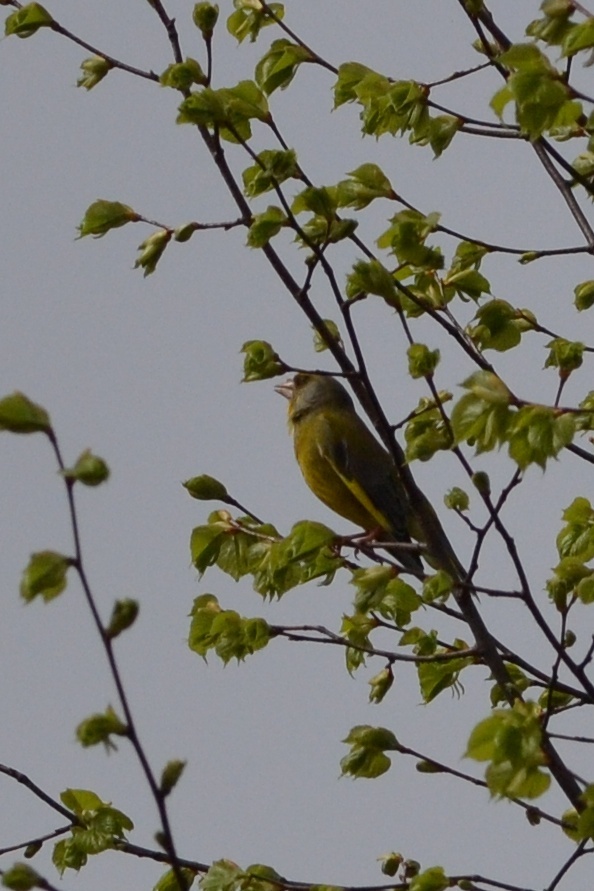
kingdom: Plantae
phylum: Tracheophyta
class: Liliopsida
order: Poales
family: Poaceae
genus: Chloris
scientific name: Chloris chloris
